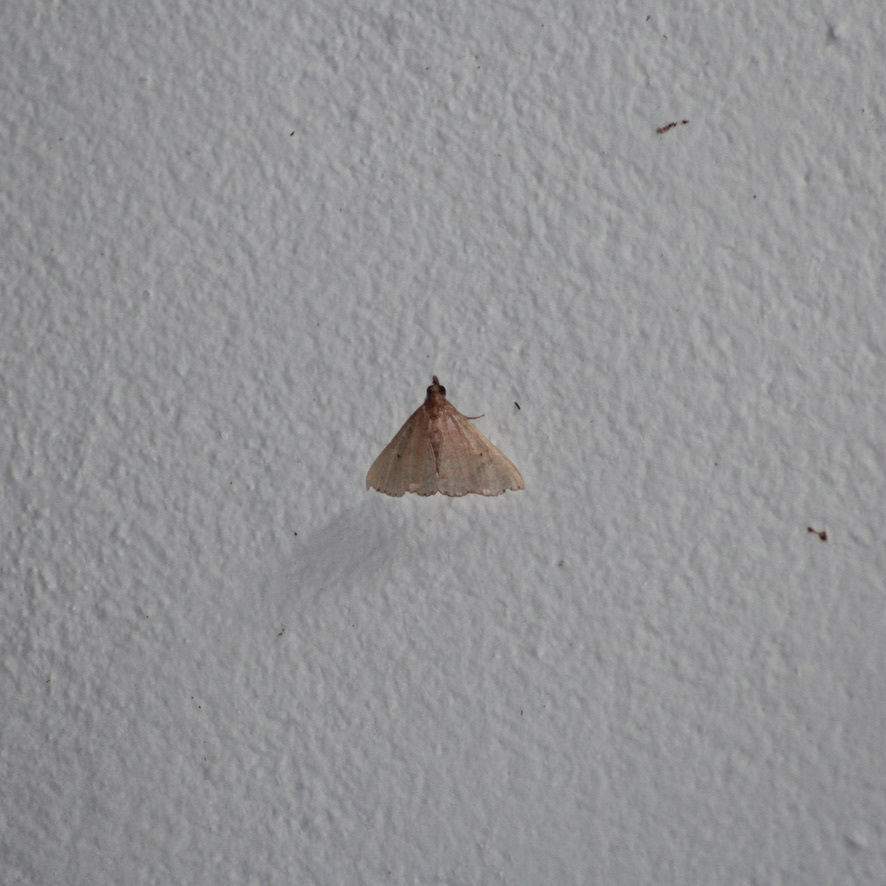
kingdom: Animalia
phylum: Arthropoda
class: Insecta
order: Lepidoptera
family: Erebidae
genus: Physula
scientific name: Physula migralis
